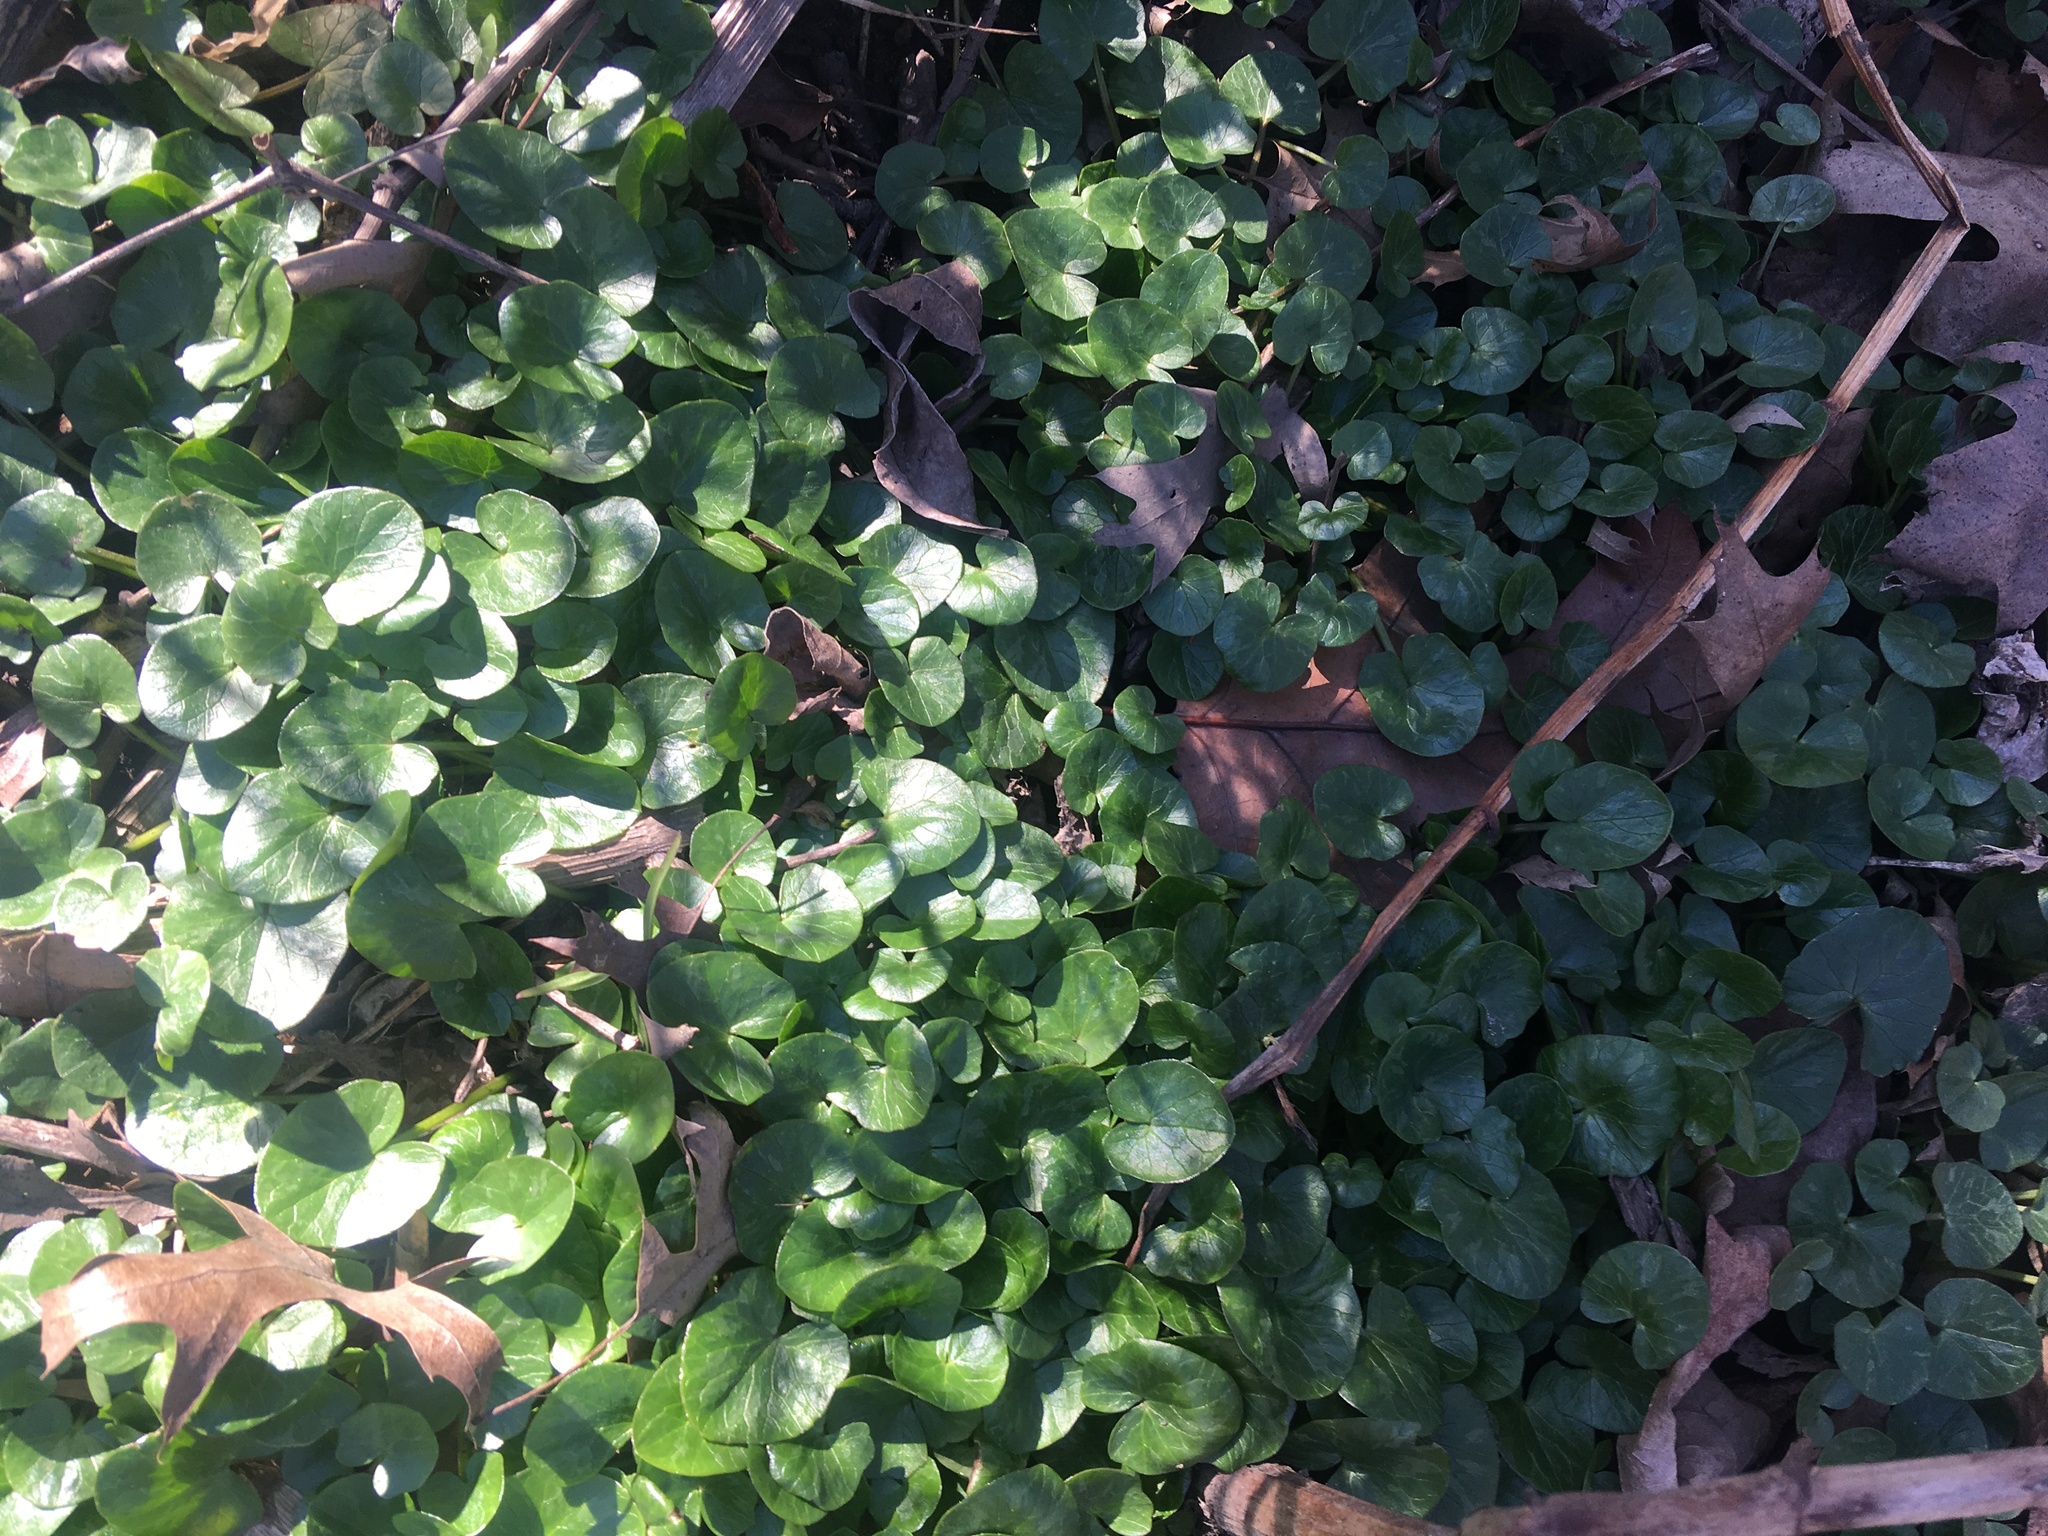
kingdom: Plantae
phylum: Tracheophyta
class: Magnoliopsida
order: Ranunculales
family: Ranunculaceae
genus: Ficaria
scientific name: Ficaria verna
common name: Lesser celandine
